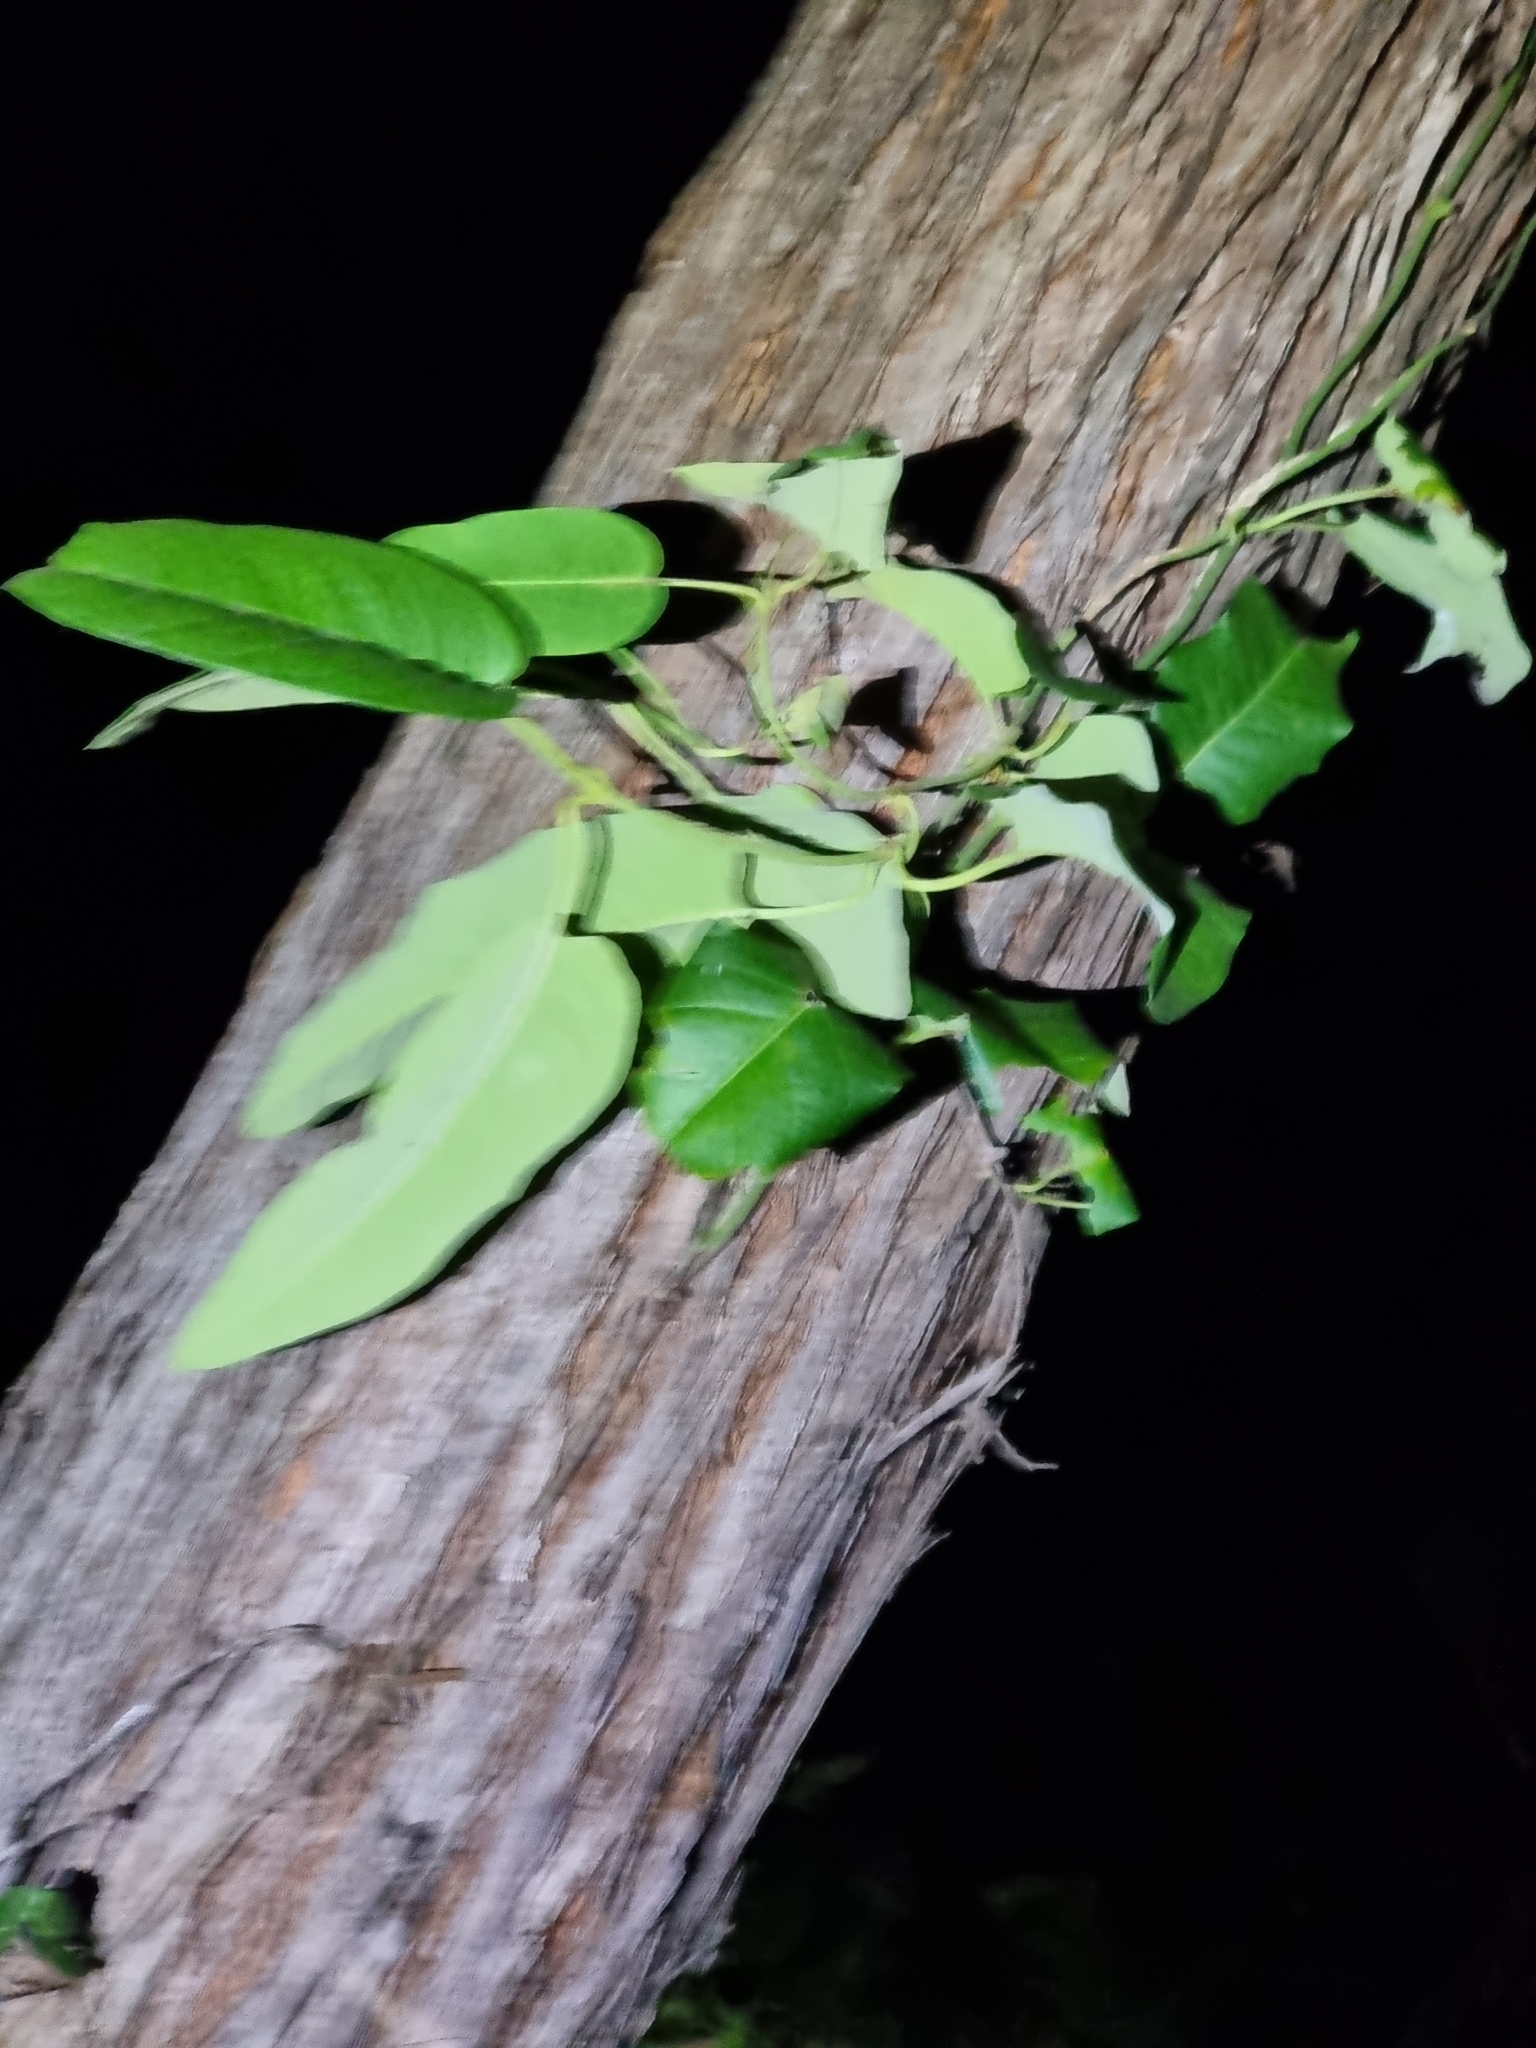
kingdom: Plantae
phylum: Tracheophyta
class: Magnoliopsida
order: Gentianales
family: Apocynaceae
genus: Parsonsia
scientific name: Parsonsia brisbanensis
